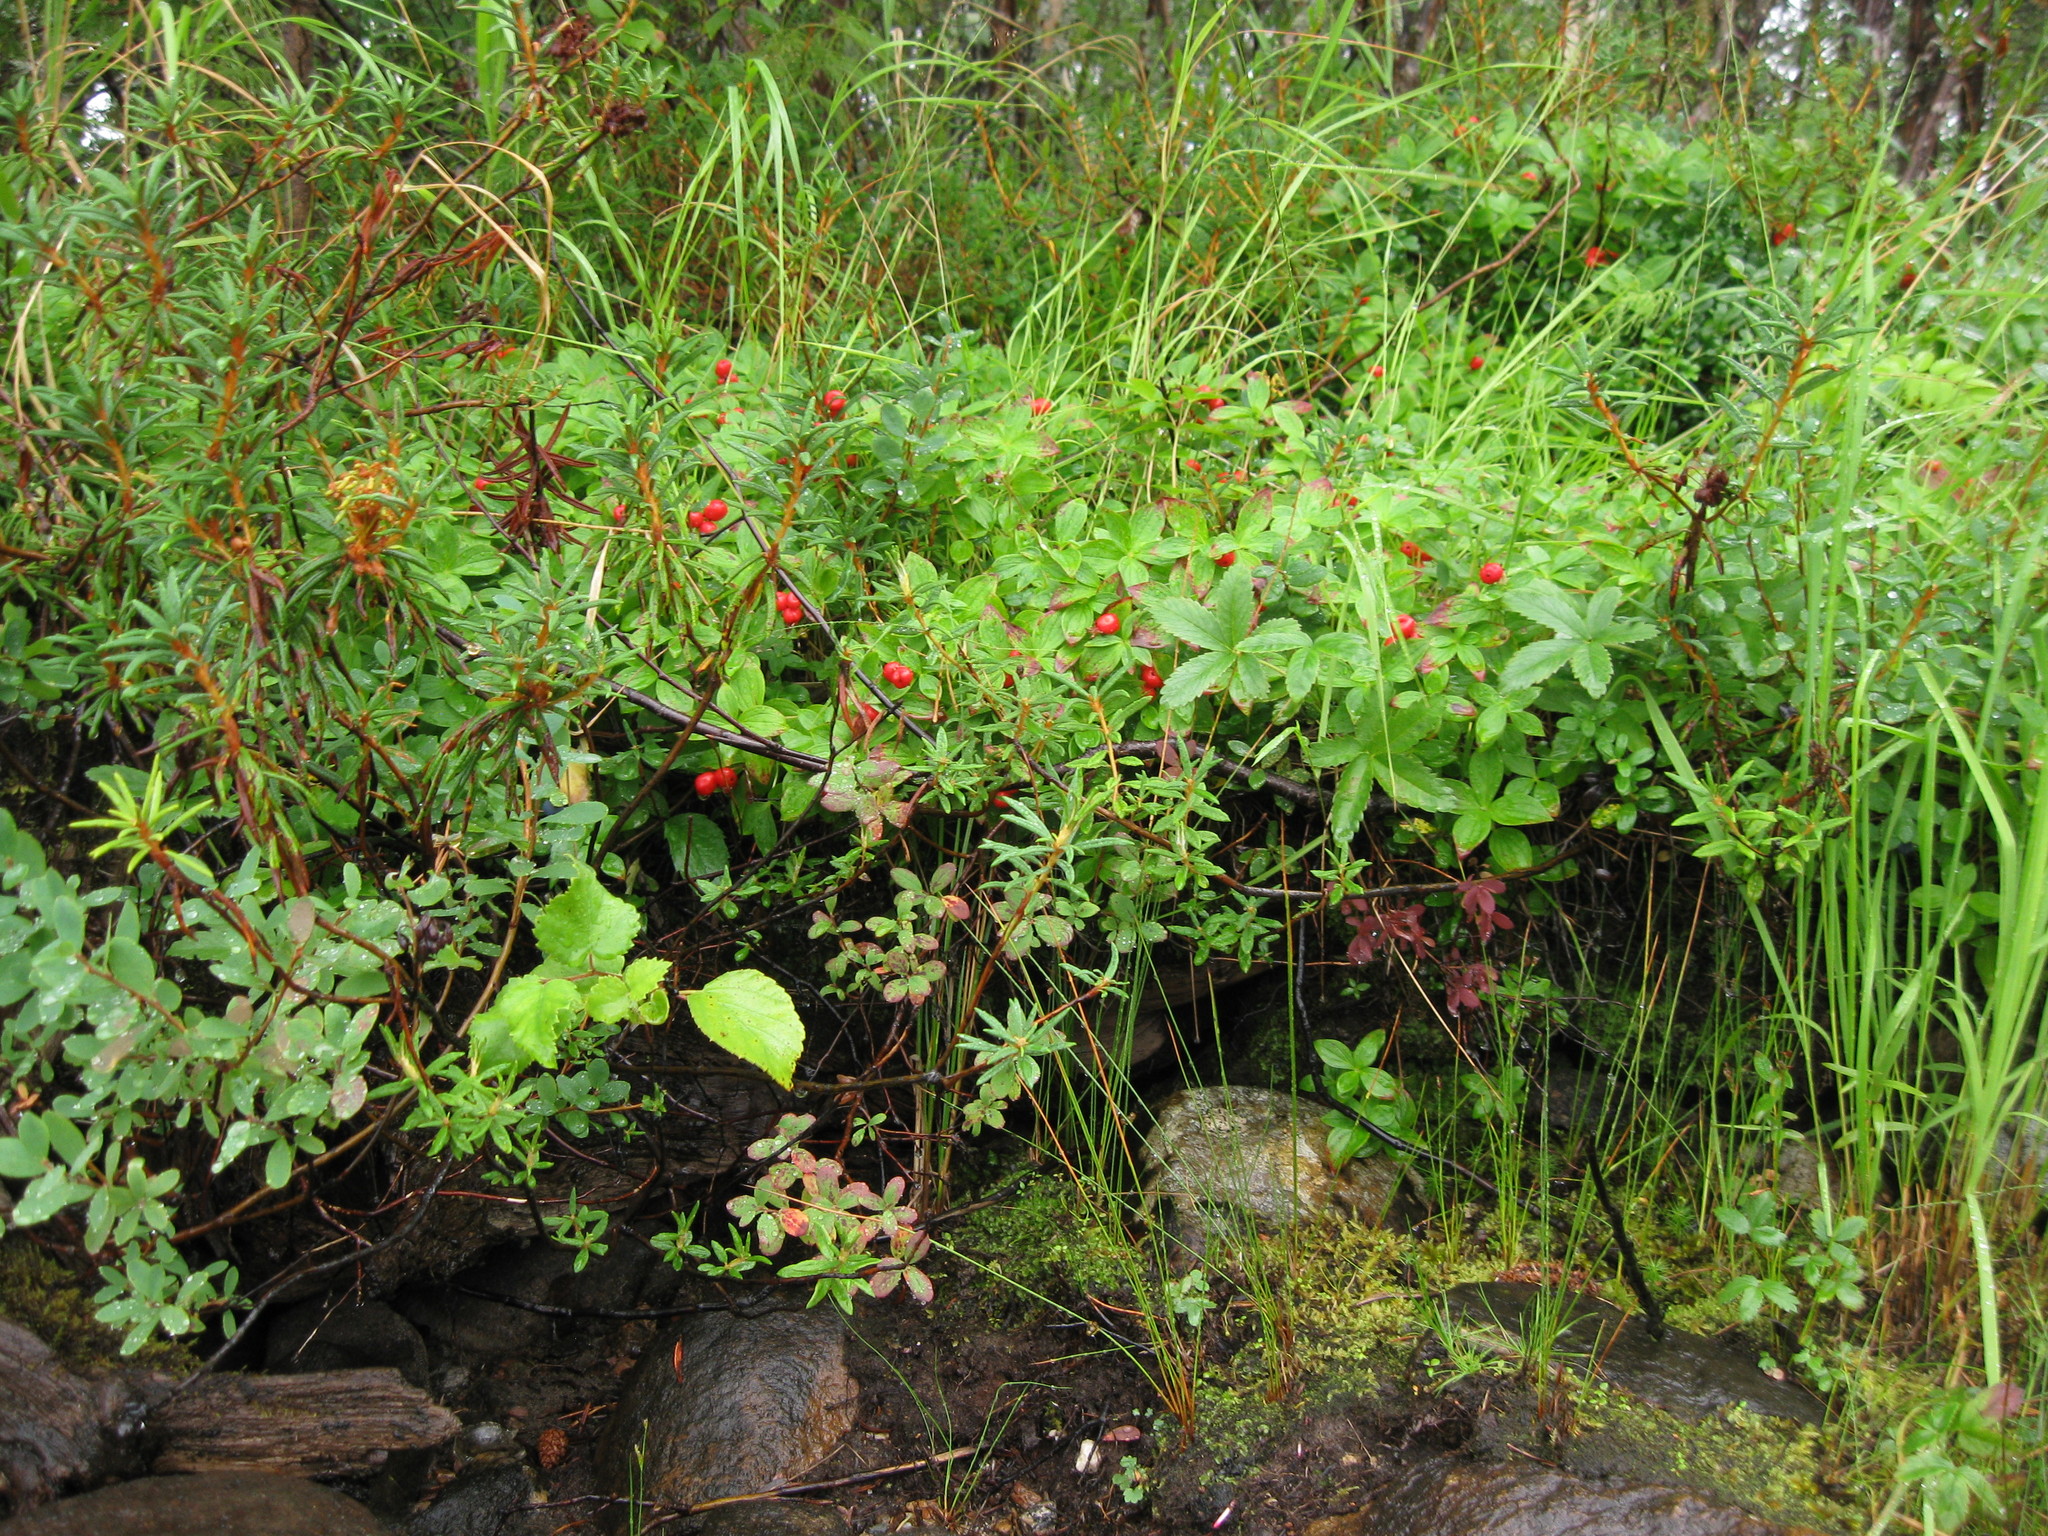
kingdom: Plantae
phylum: Tracheophyta
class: Magnoliopsida
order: Cornales
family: Cornaceae
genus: Cornus
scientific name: Cornus suecica
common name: Dwarf cornel
